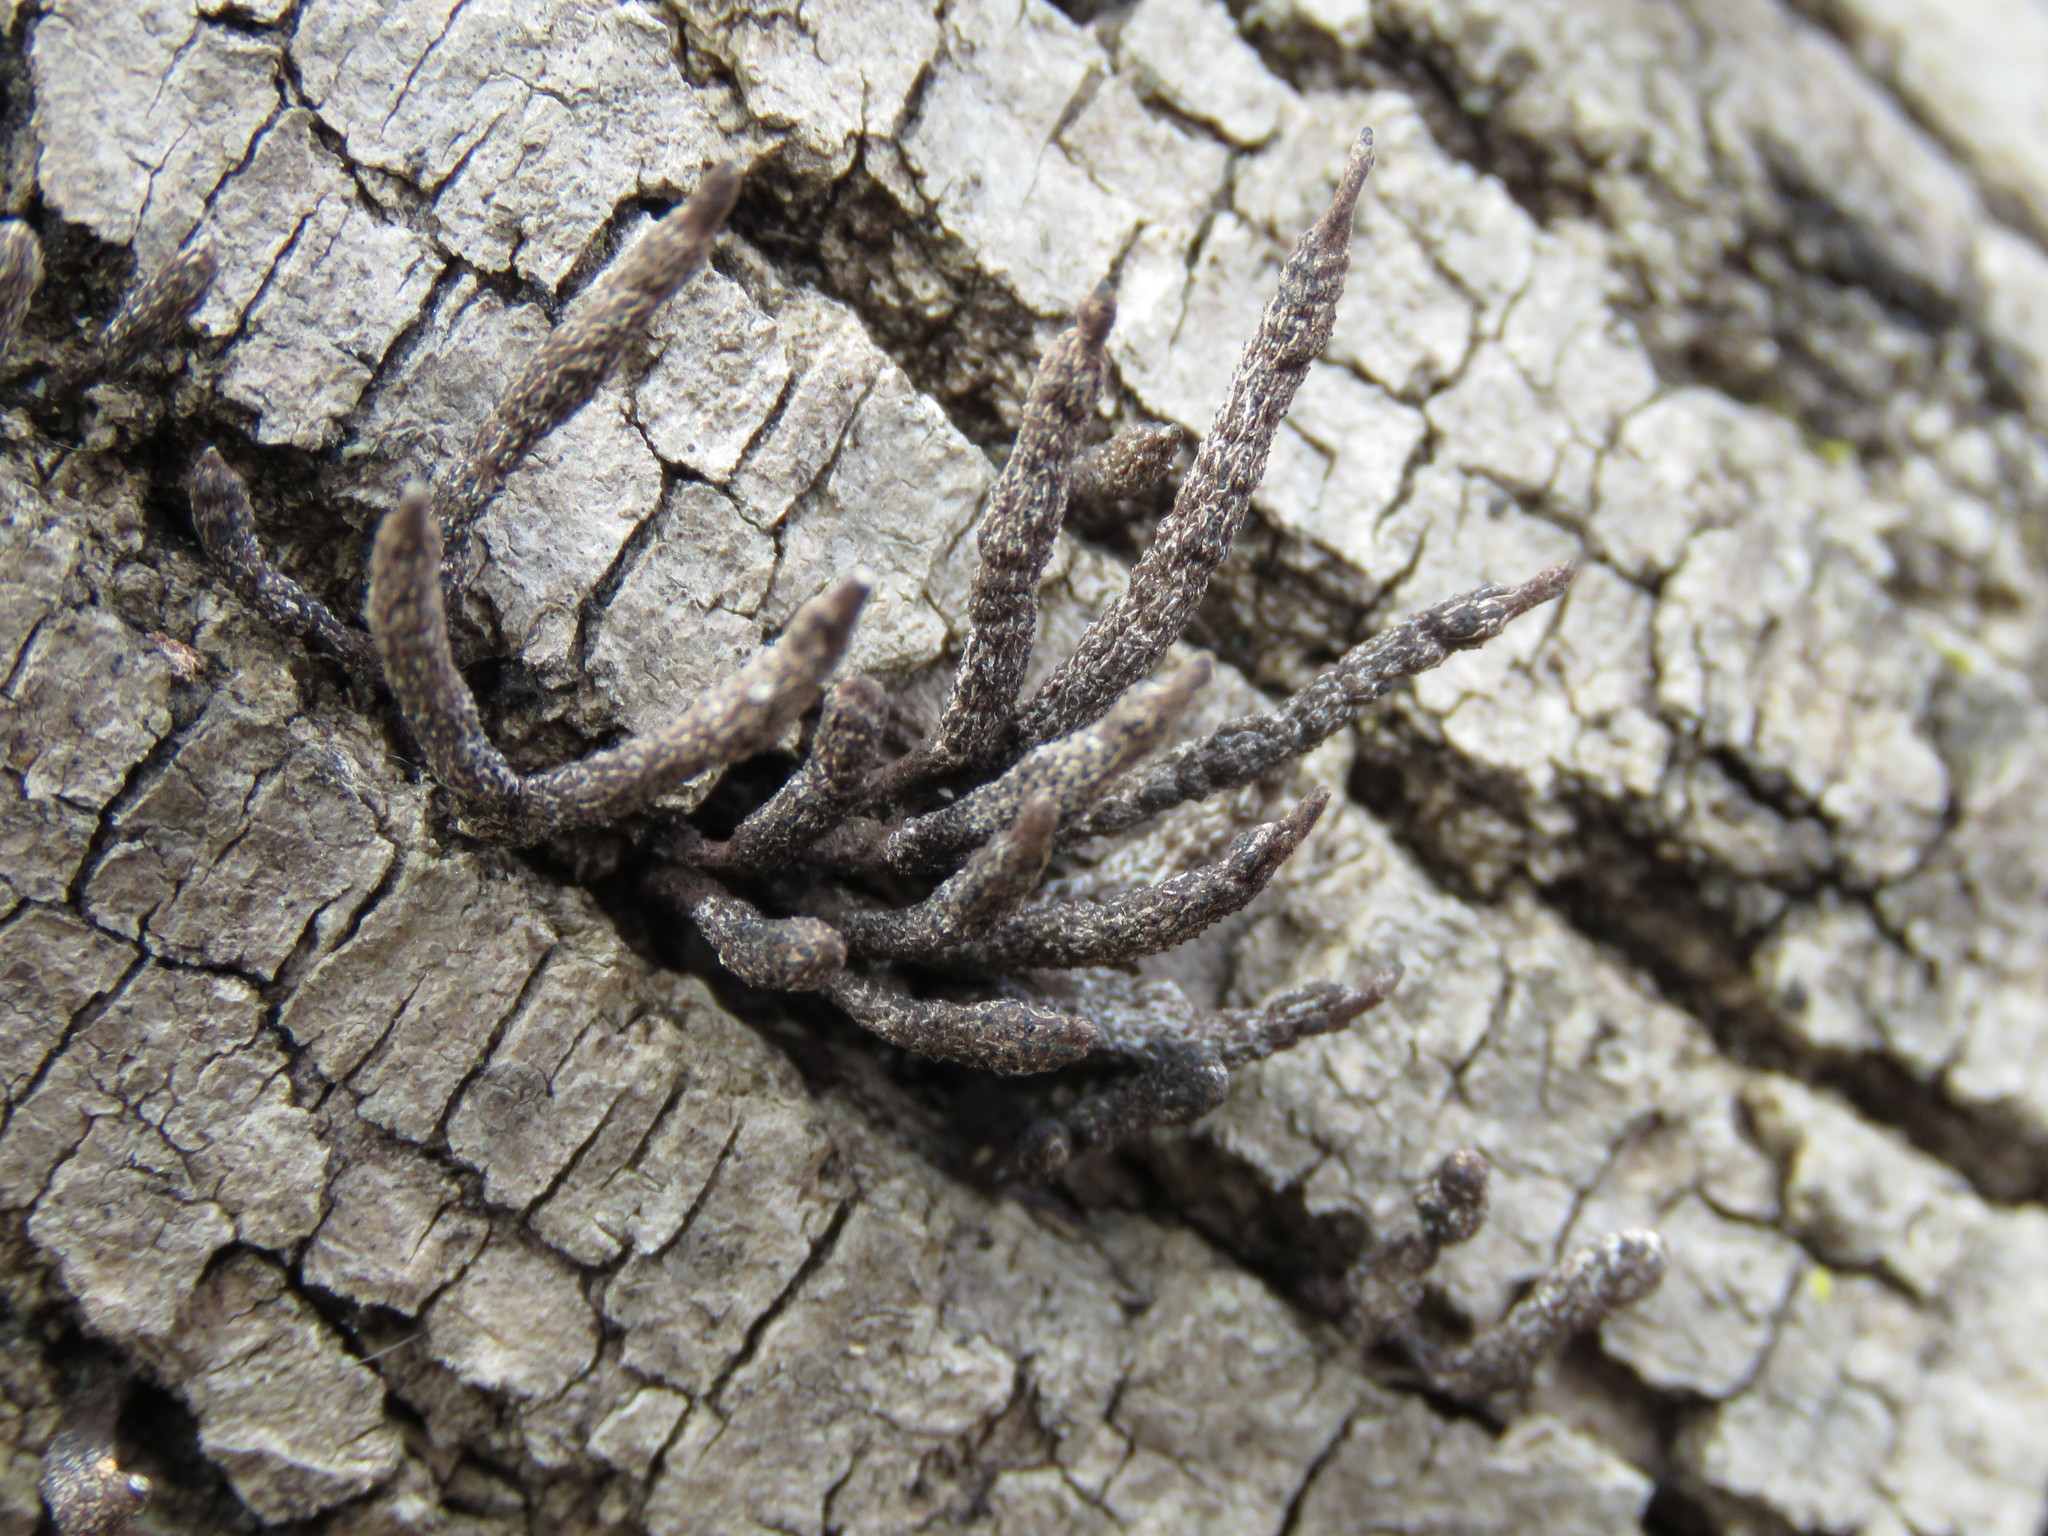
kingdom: Fungi
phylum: Ascomycota
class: Sordariomycetes
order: Xylariales
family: Xylariaceae
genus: Xylaria
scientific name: Xylaria hypoxylon
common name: Candle-snuff fungus
